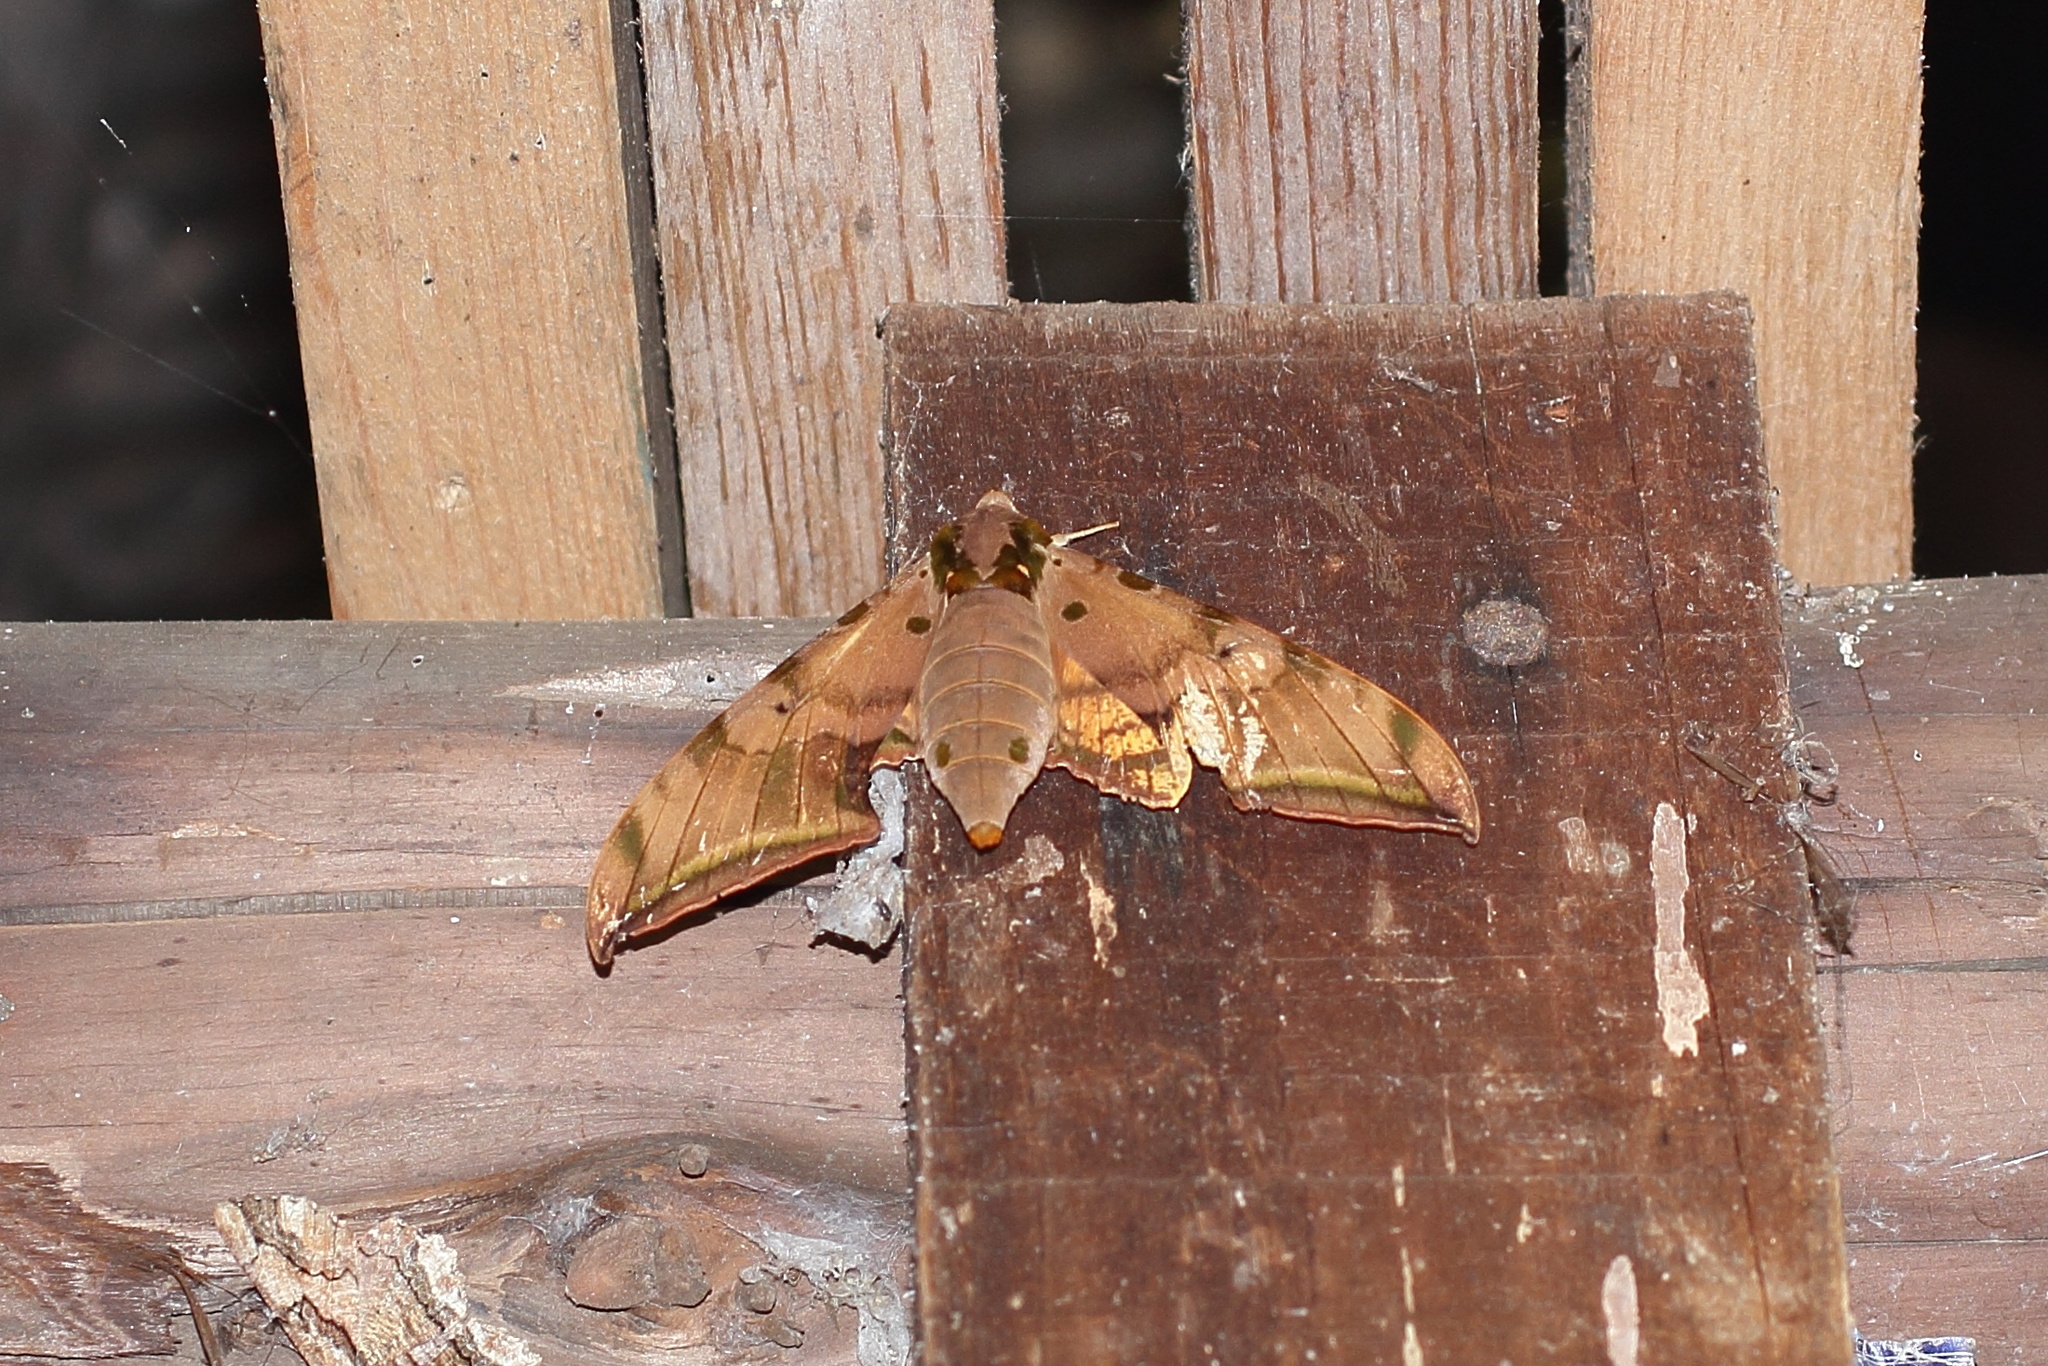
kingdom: Animalia
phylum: Arthropoda
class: Insecta
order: Lepidoptera
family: Sphingidae
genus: Ambulyx
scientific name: Ambulyx sericeipennis
